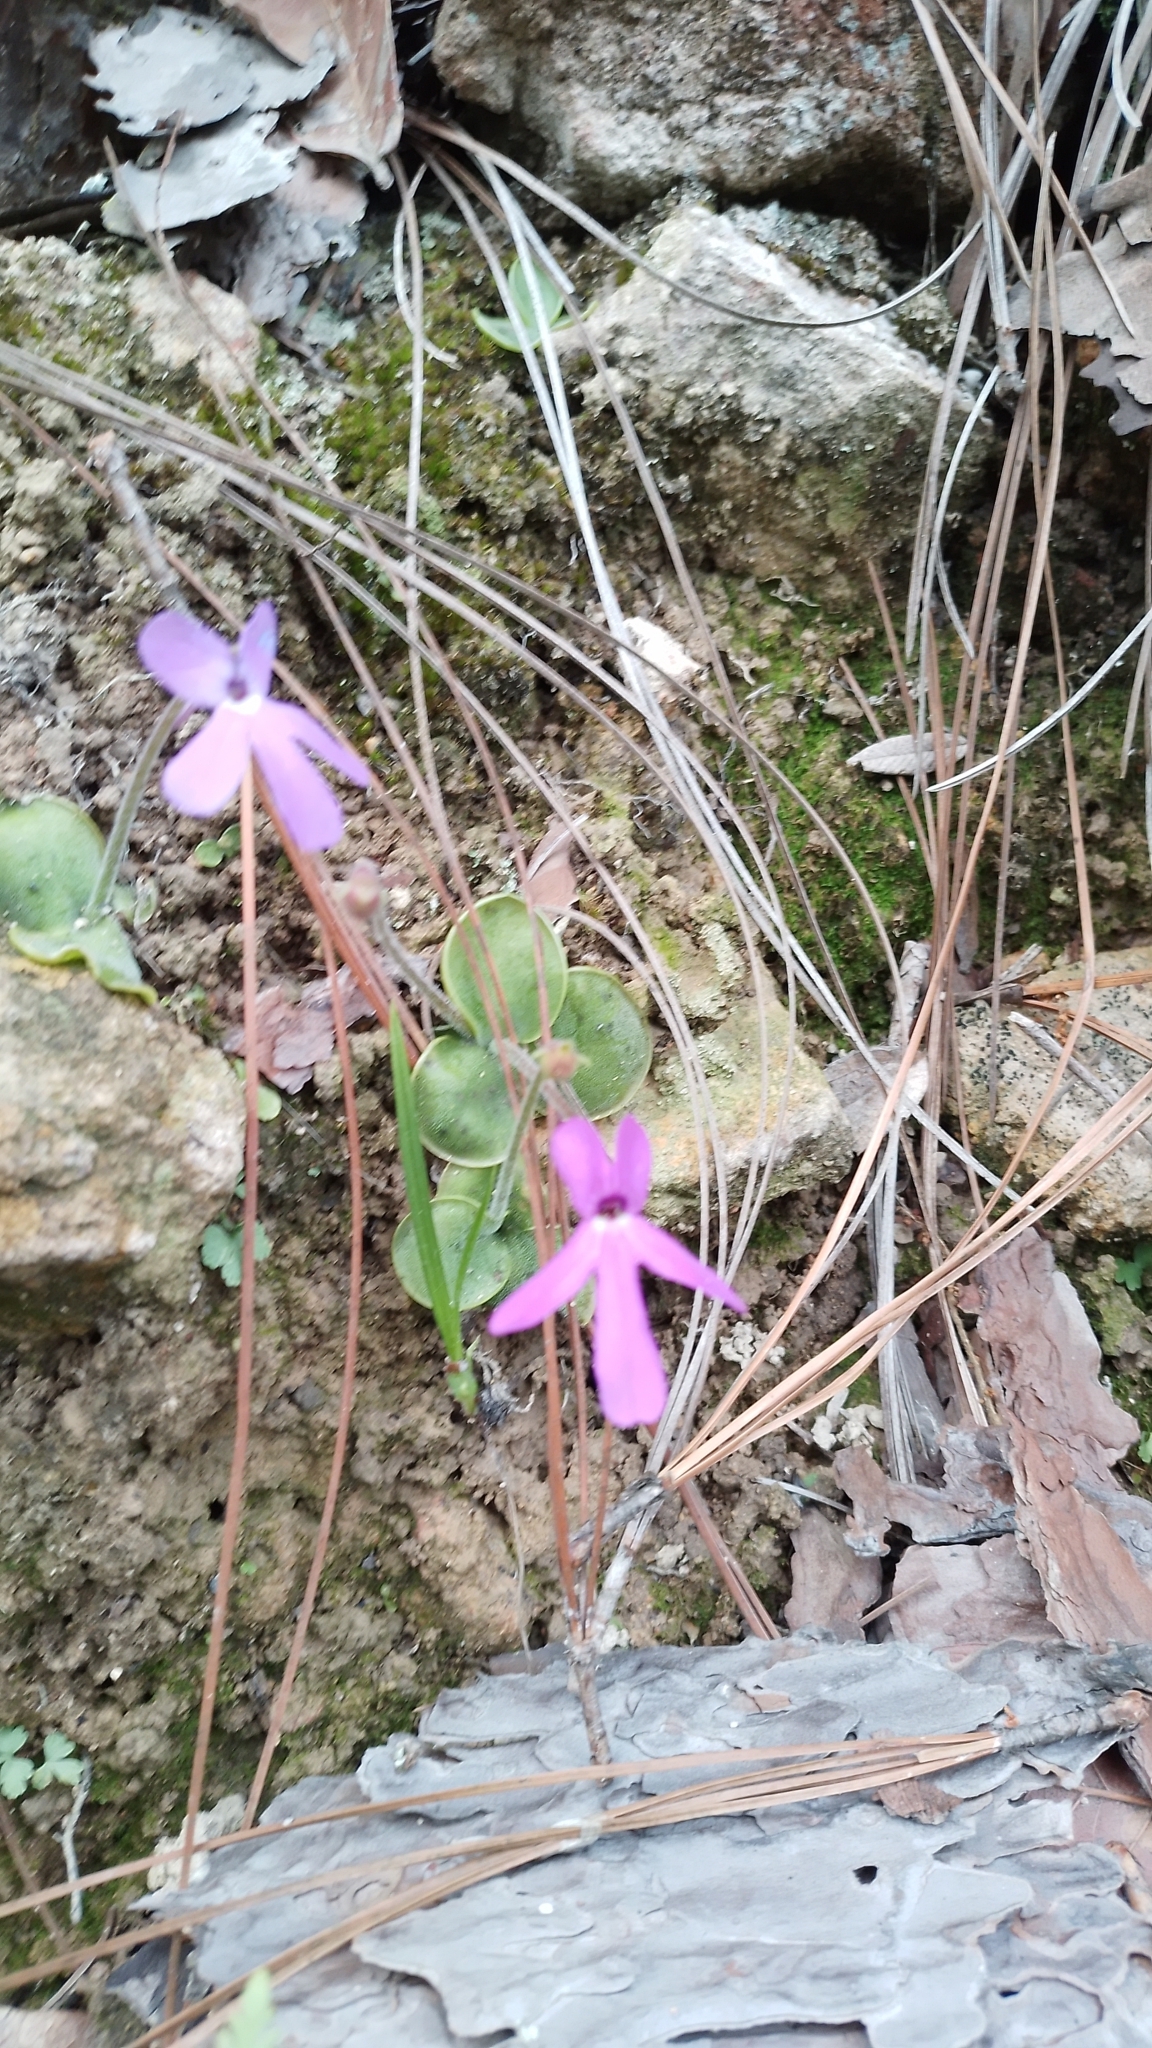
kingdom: Plantae
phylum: Tracheophyta
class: Magnoliopsida
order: Lamiales
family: Lentibulariaceae
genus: Pinguicula
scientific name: Pinguicula oblongiloba
